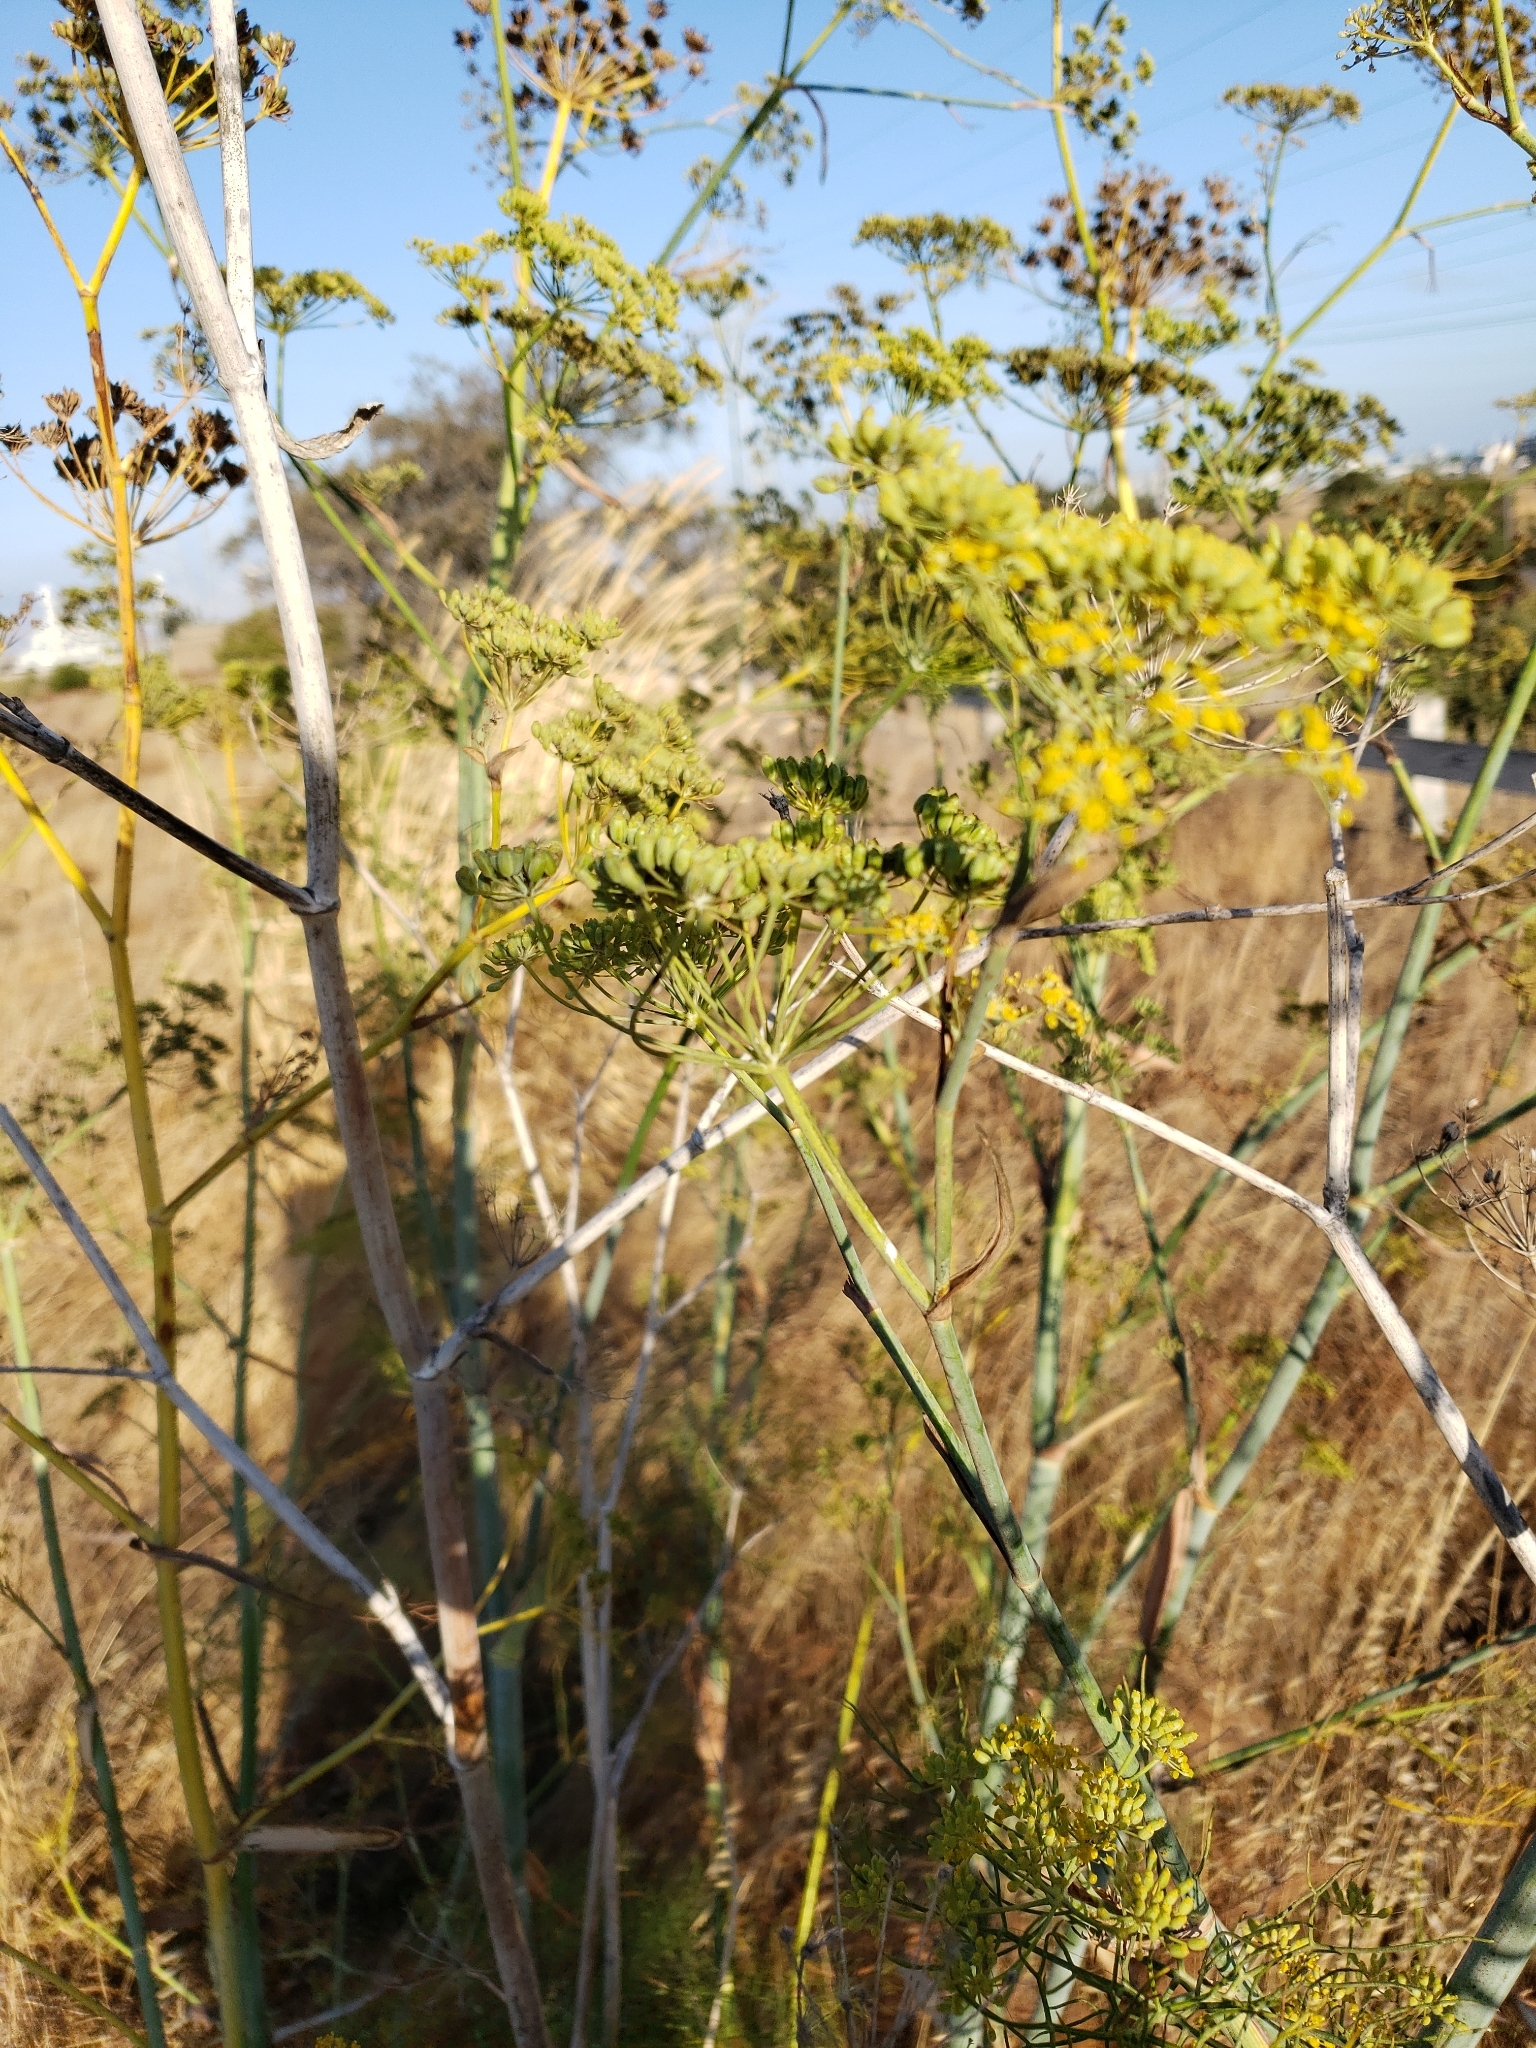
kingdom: Plantae
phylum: Tracheophyta
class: Magnoliopsida
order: Apiales
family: Apiaceae
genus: Foeniculum
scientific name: Foeniculum vulgare
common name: Fennel
